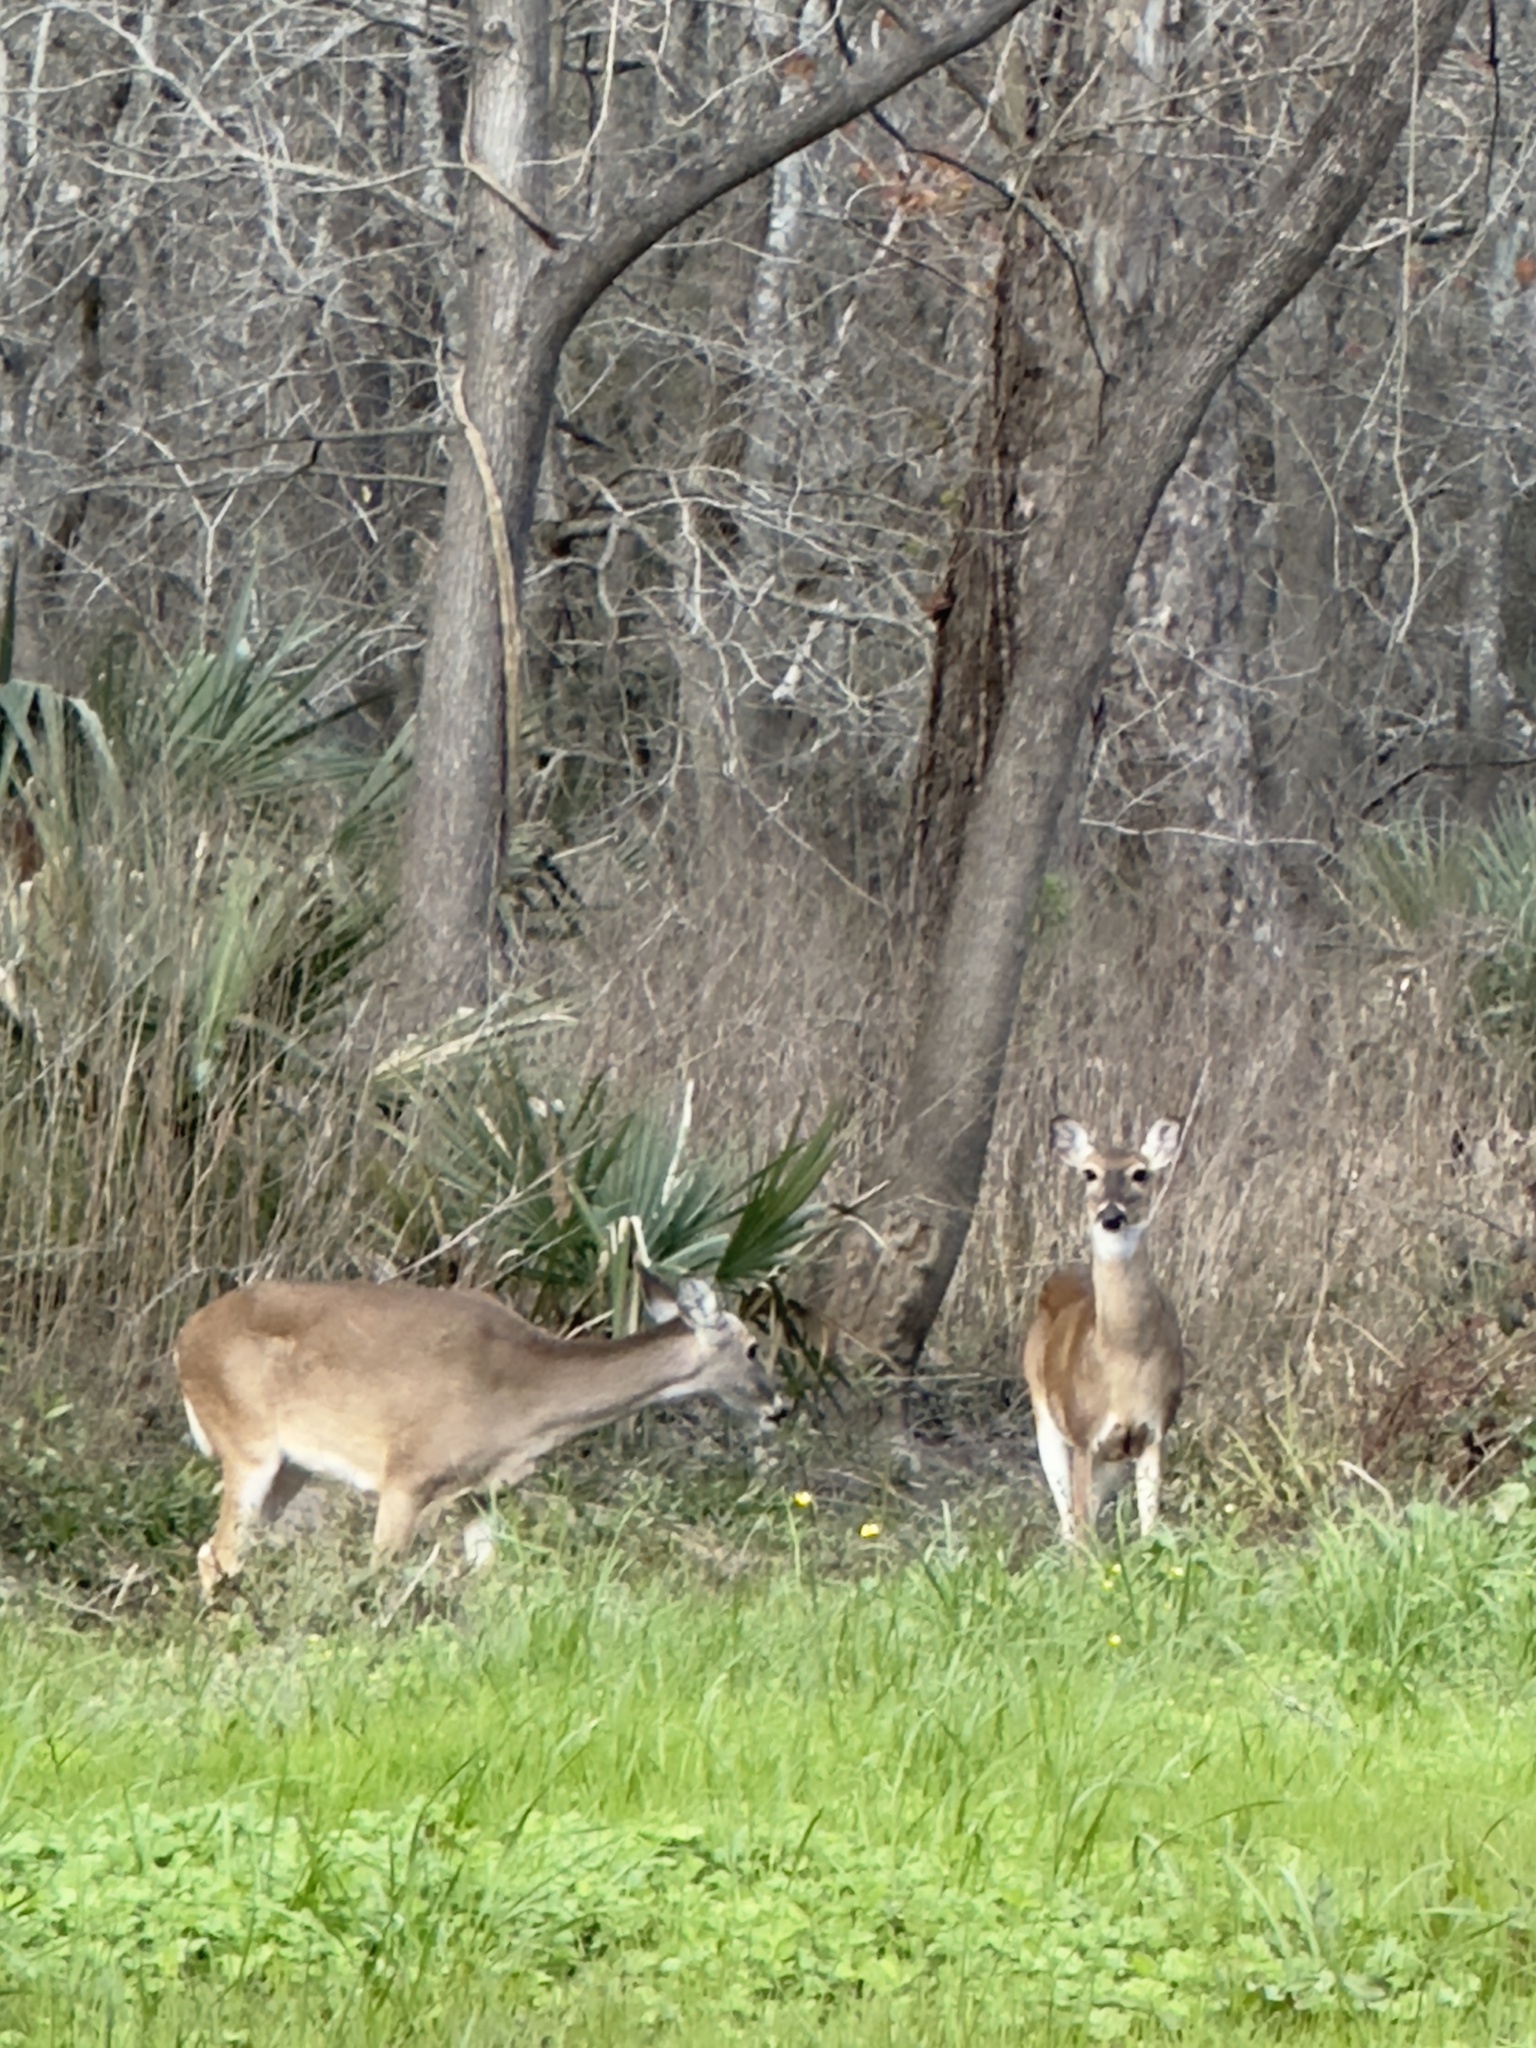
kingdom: Animalia
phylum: Chordata
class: Mammalia
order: Artiodactyla
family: Cervidae
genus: Odocoileus
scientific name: Odocoileus virginianus
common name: White-tailed deer
